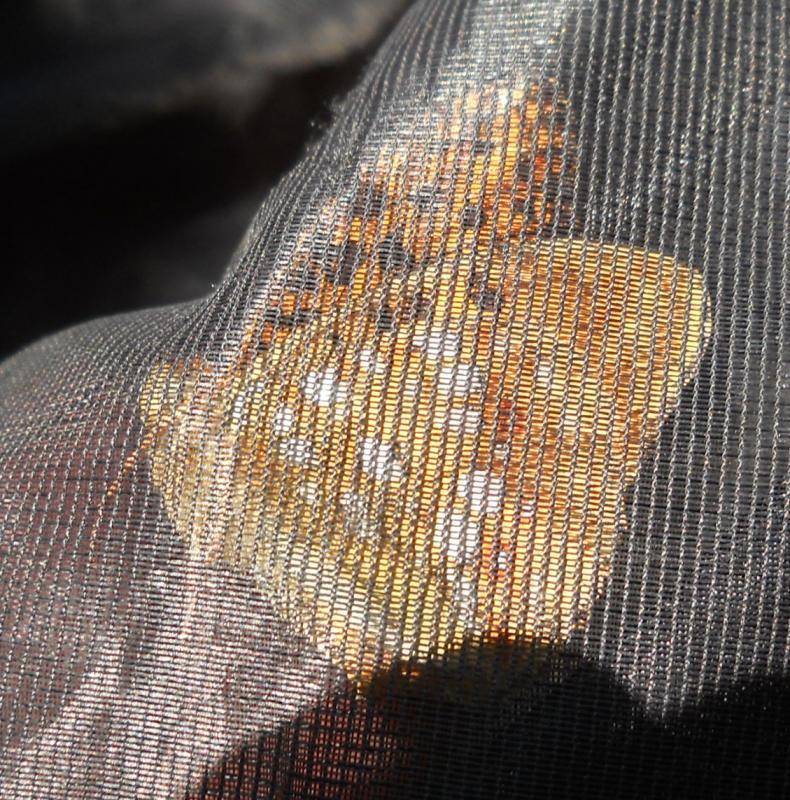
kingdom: Animalia
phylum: Arthropoda
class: Insecta
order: Lepidoptera
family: Nymphalidae
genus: Fabriciana
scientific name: Fabriciana adippe
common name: High brown fritillary
